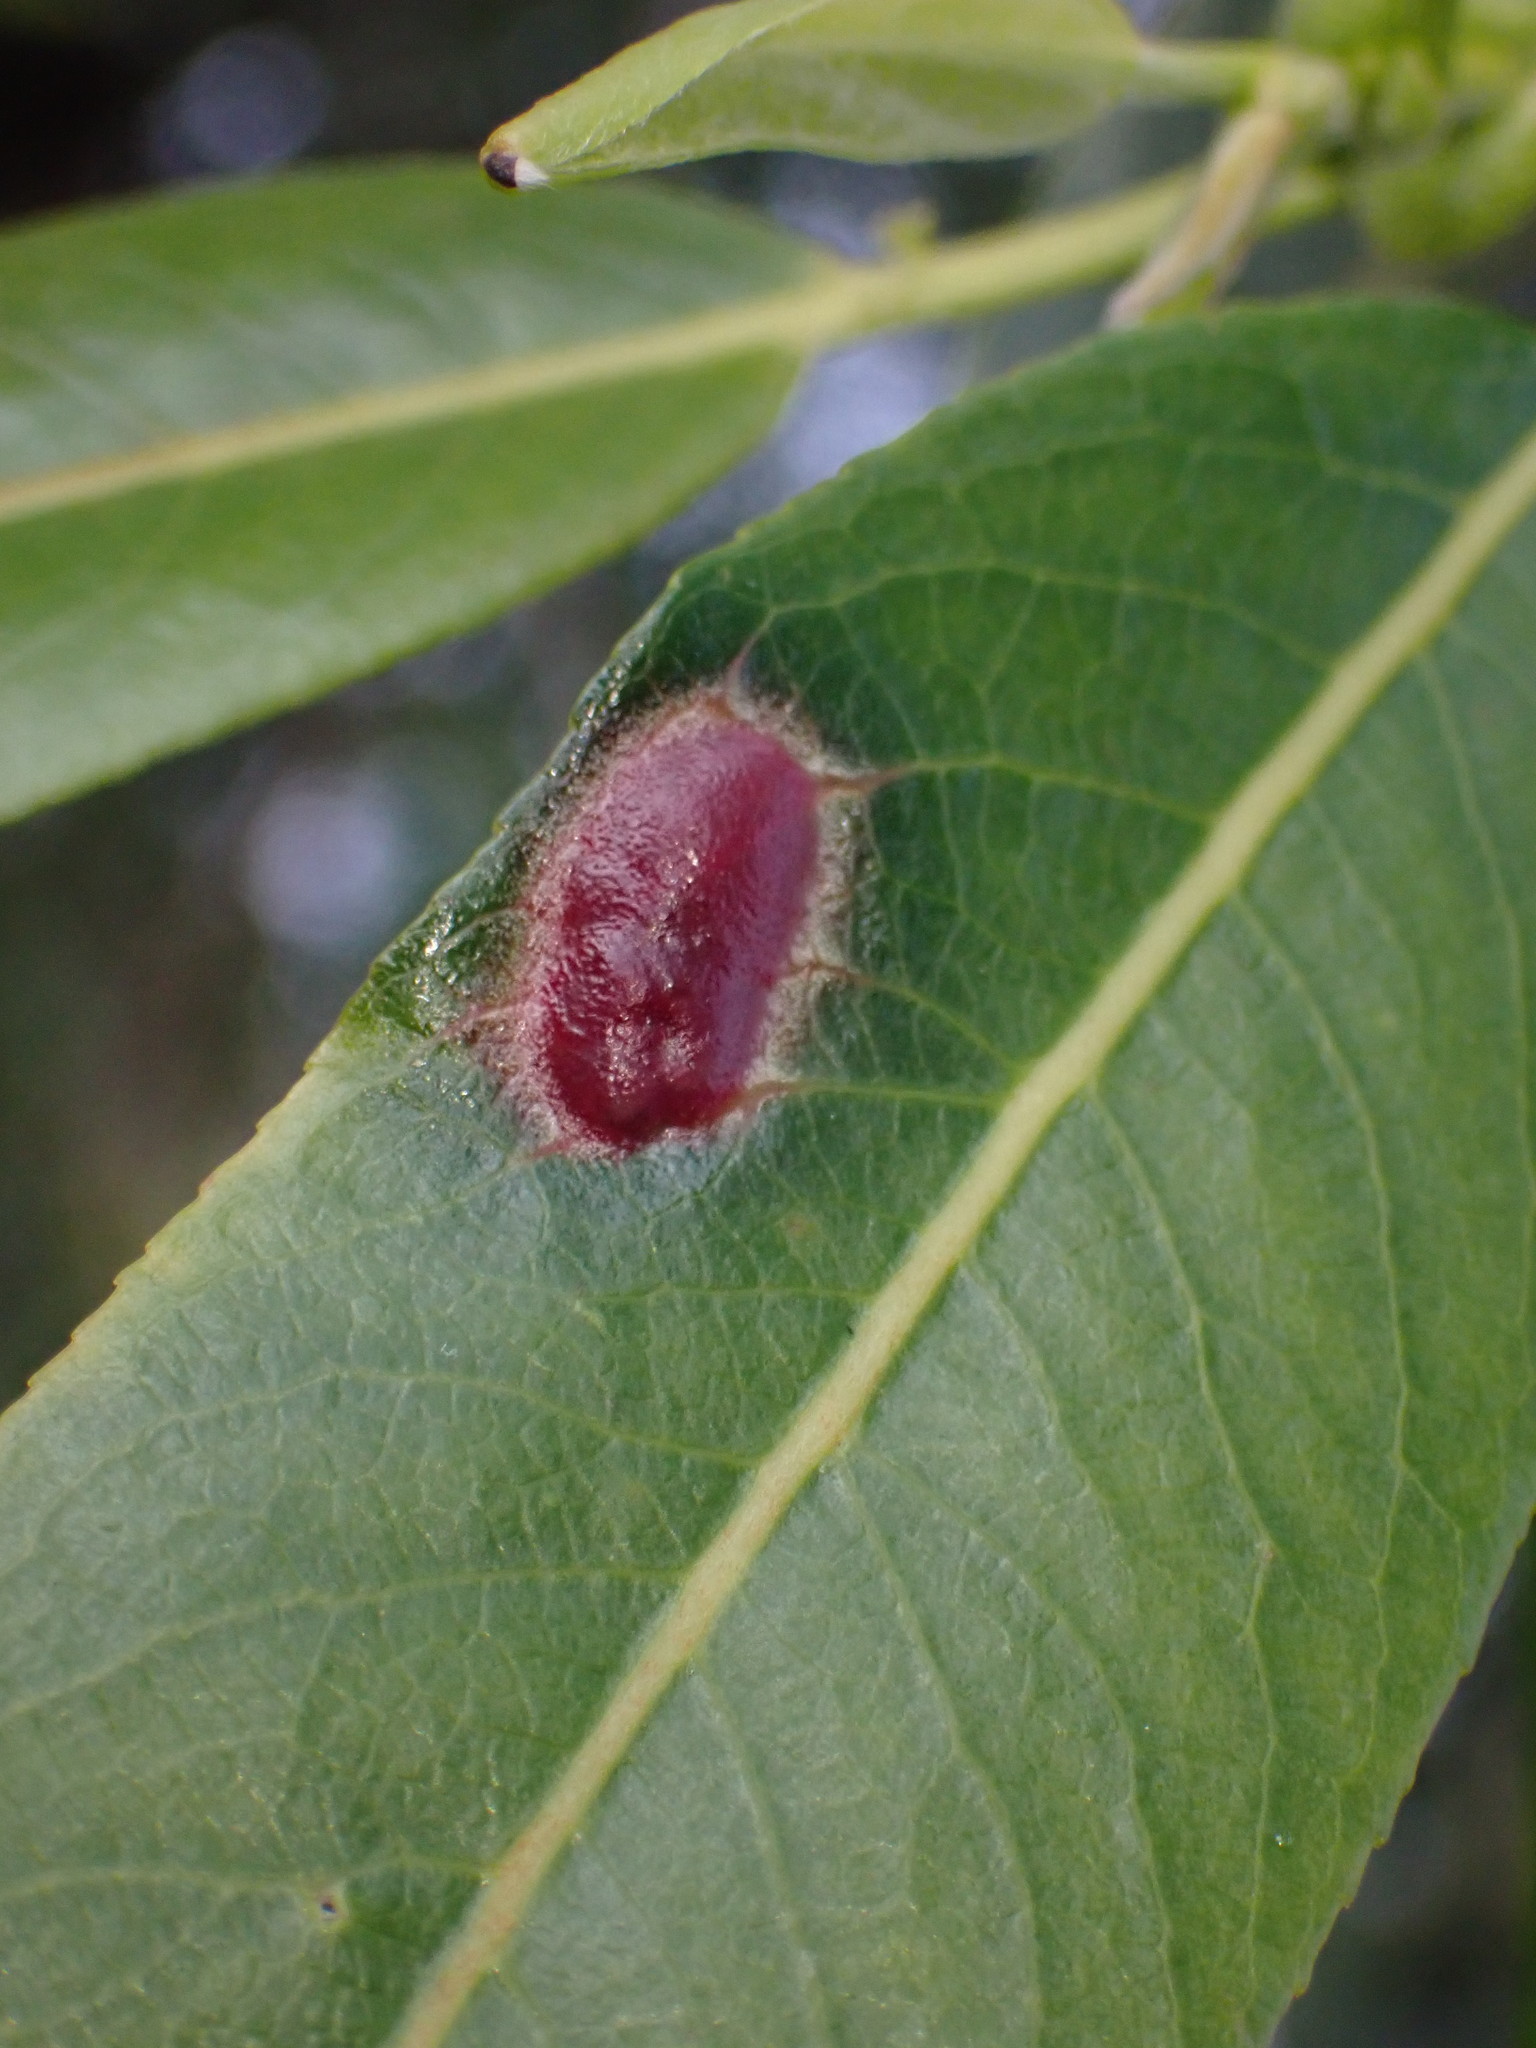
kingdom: Animalia
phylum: Arthropoda
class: Insecta
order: Hymenoptera
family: Tenthredinidae
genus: Pontania
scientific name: Pontania proxima
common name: Common sawfly
